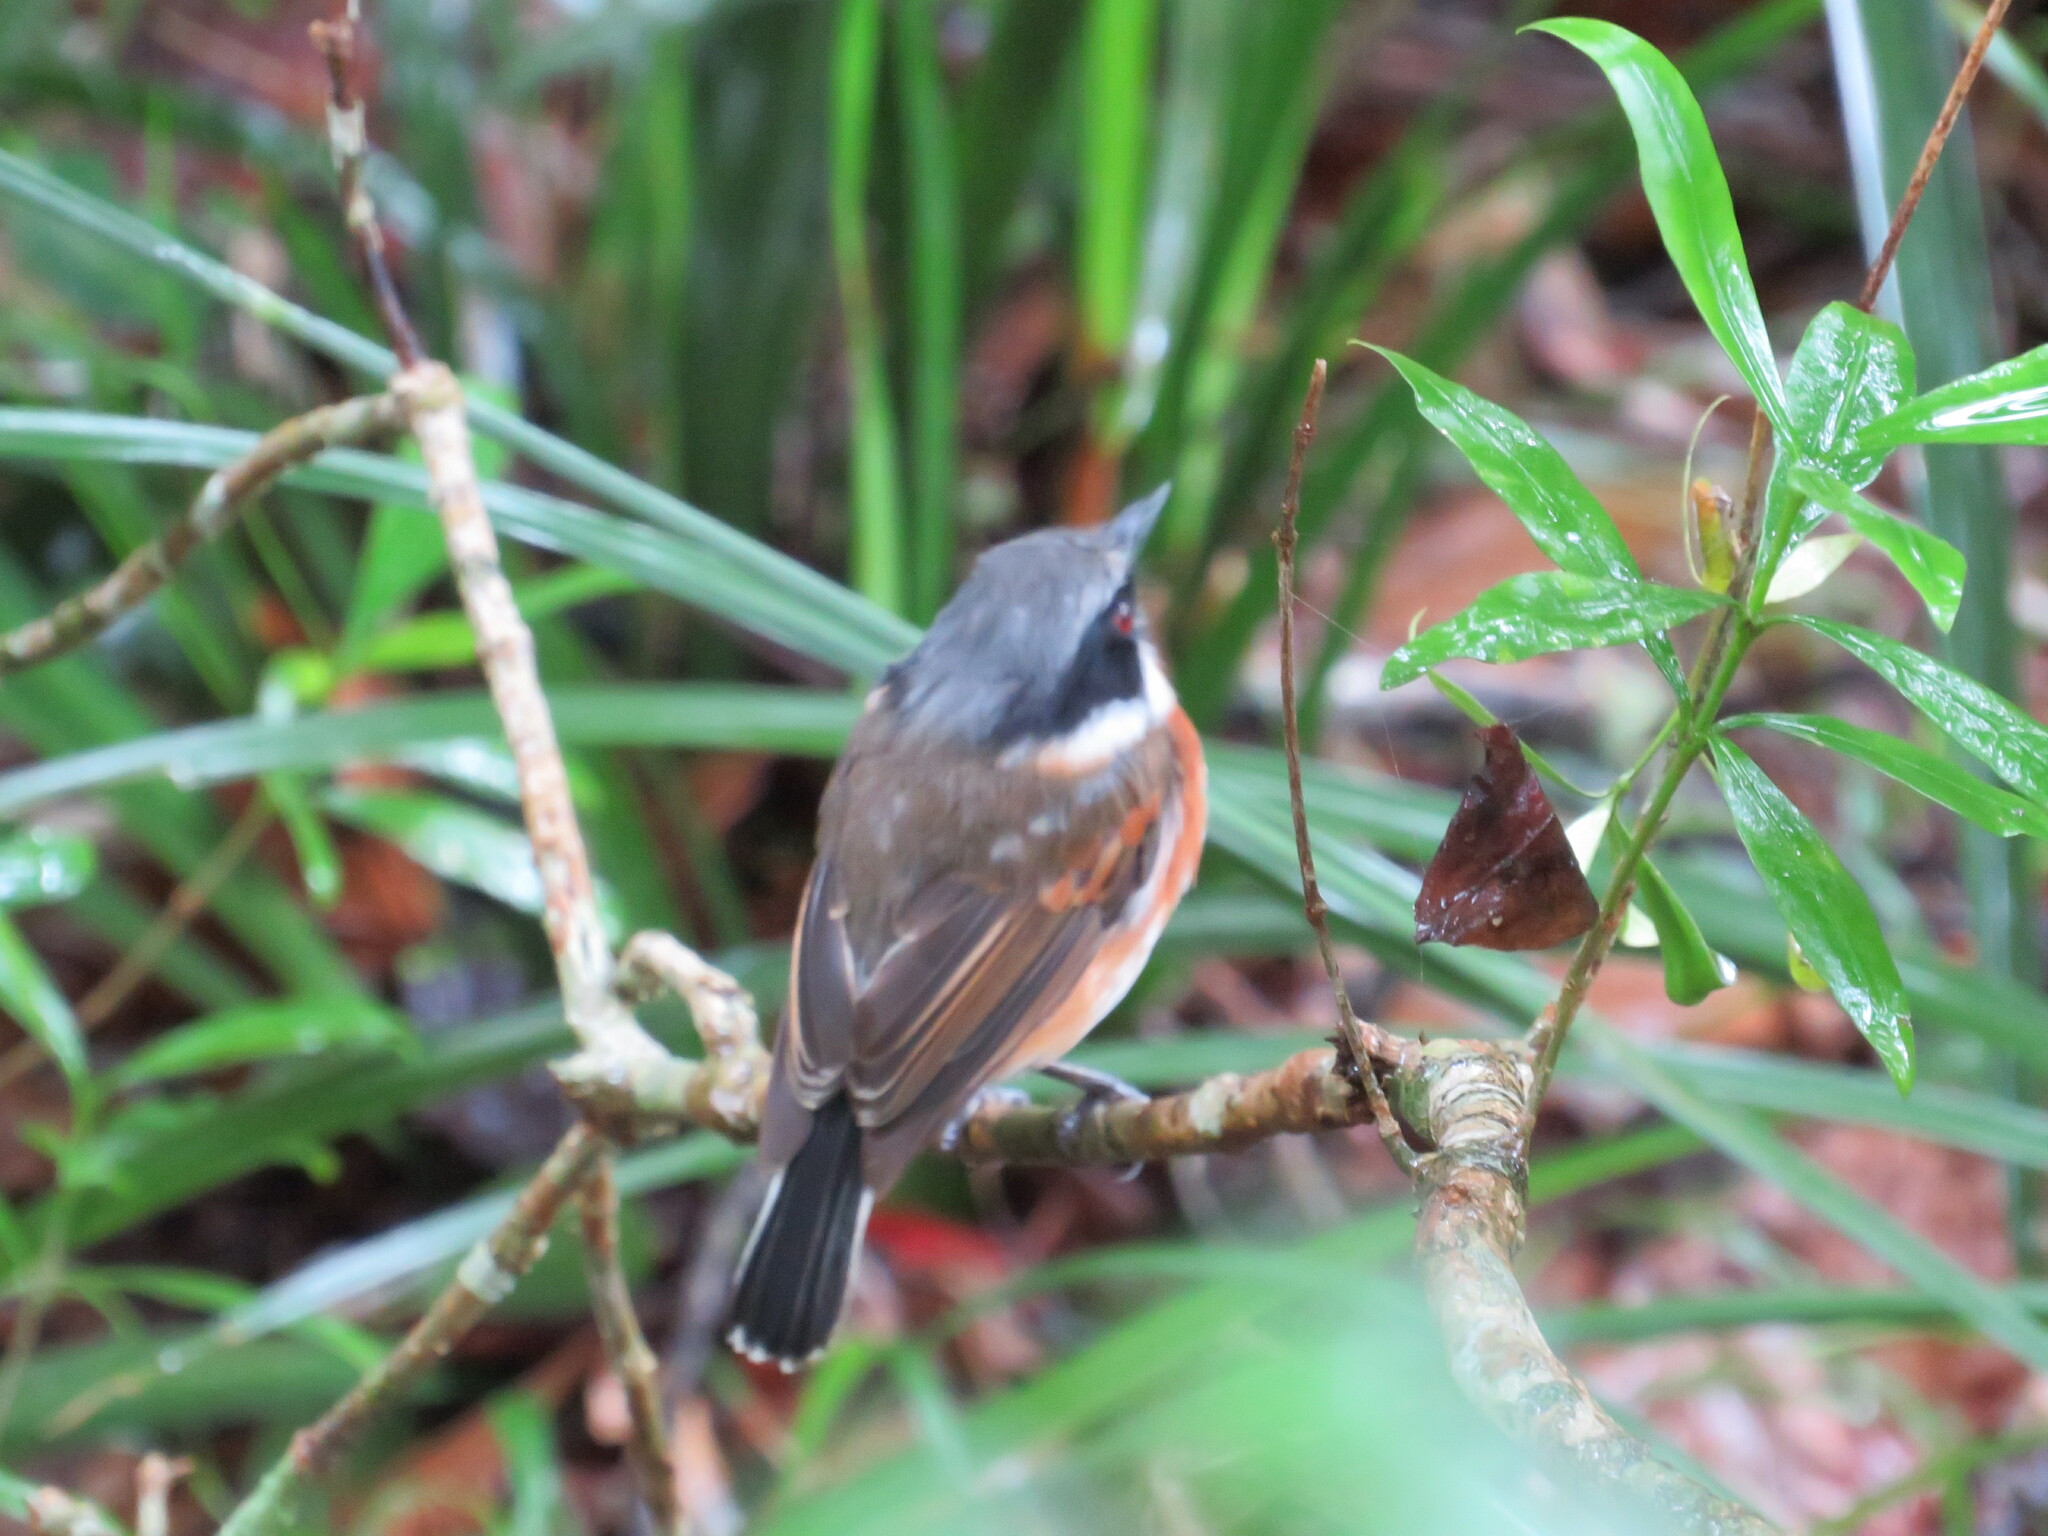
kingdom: Animalia
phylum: Chordata
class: Aves
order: Passeriformes
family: Platysteiridae
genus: Batis
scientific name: Batis capensis
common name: Cape batis
